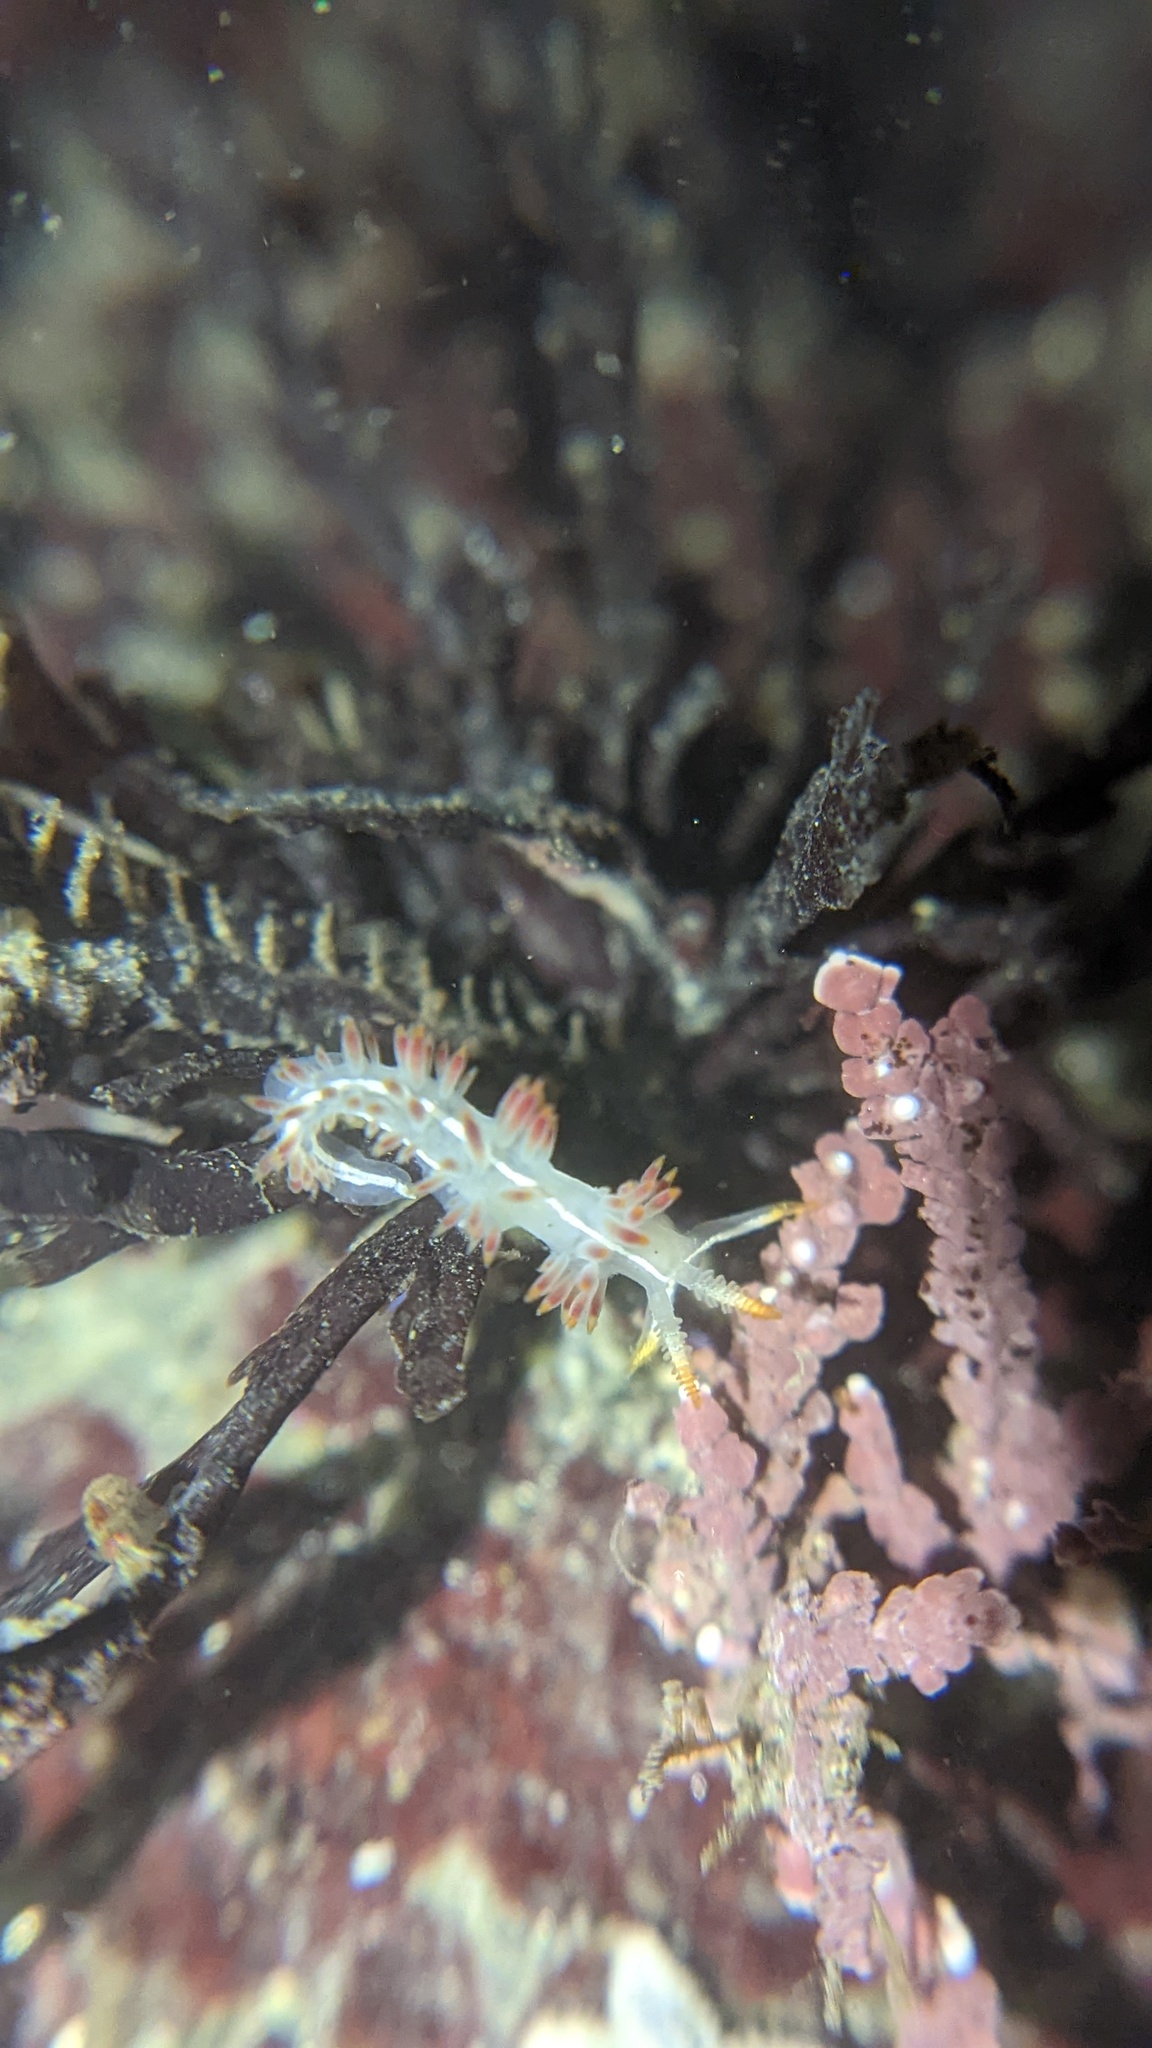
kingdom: Animalia
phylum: Mollusca
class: Gastropoda
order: Nudibranchia
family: Coryphellidae
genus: Coryphella
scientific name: Coryphella trilineata
